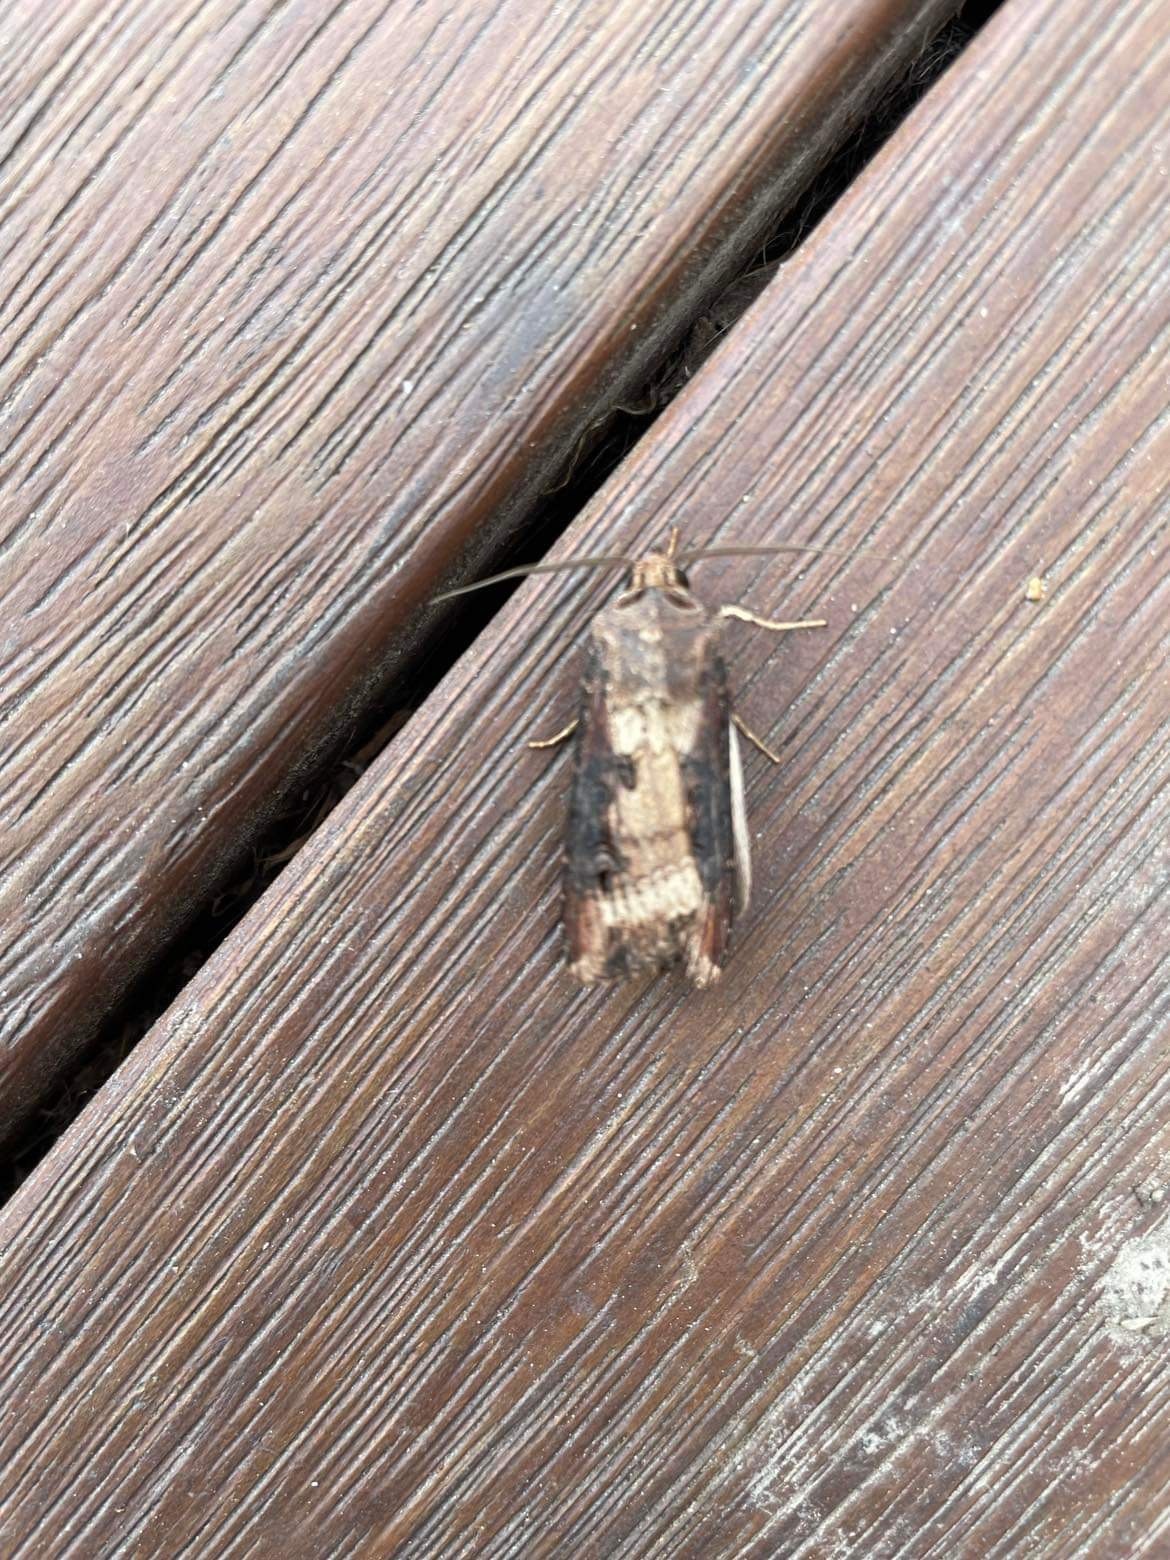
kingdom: Animalia
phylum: Arthropoda
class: Insecta
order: Lepidoptera
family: Noctuidae
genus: Agrotis
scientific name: Agrotis ipsilon
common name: Dark sword-grass
